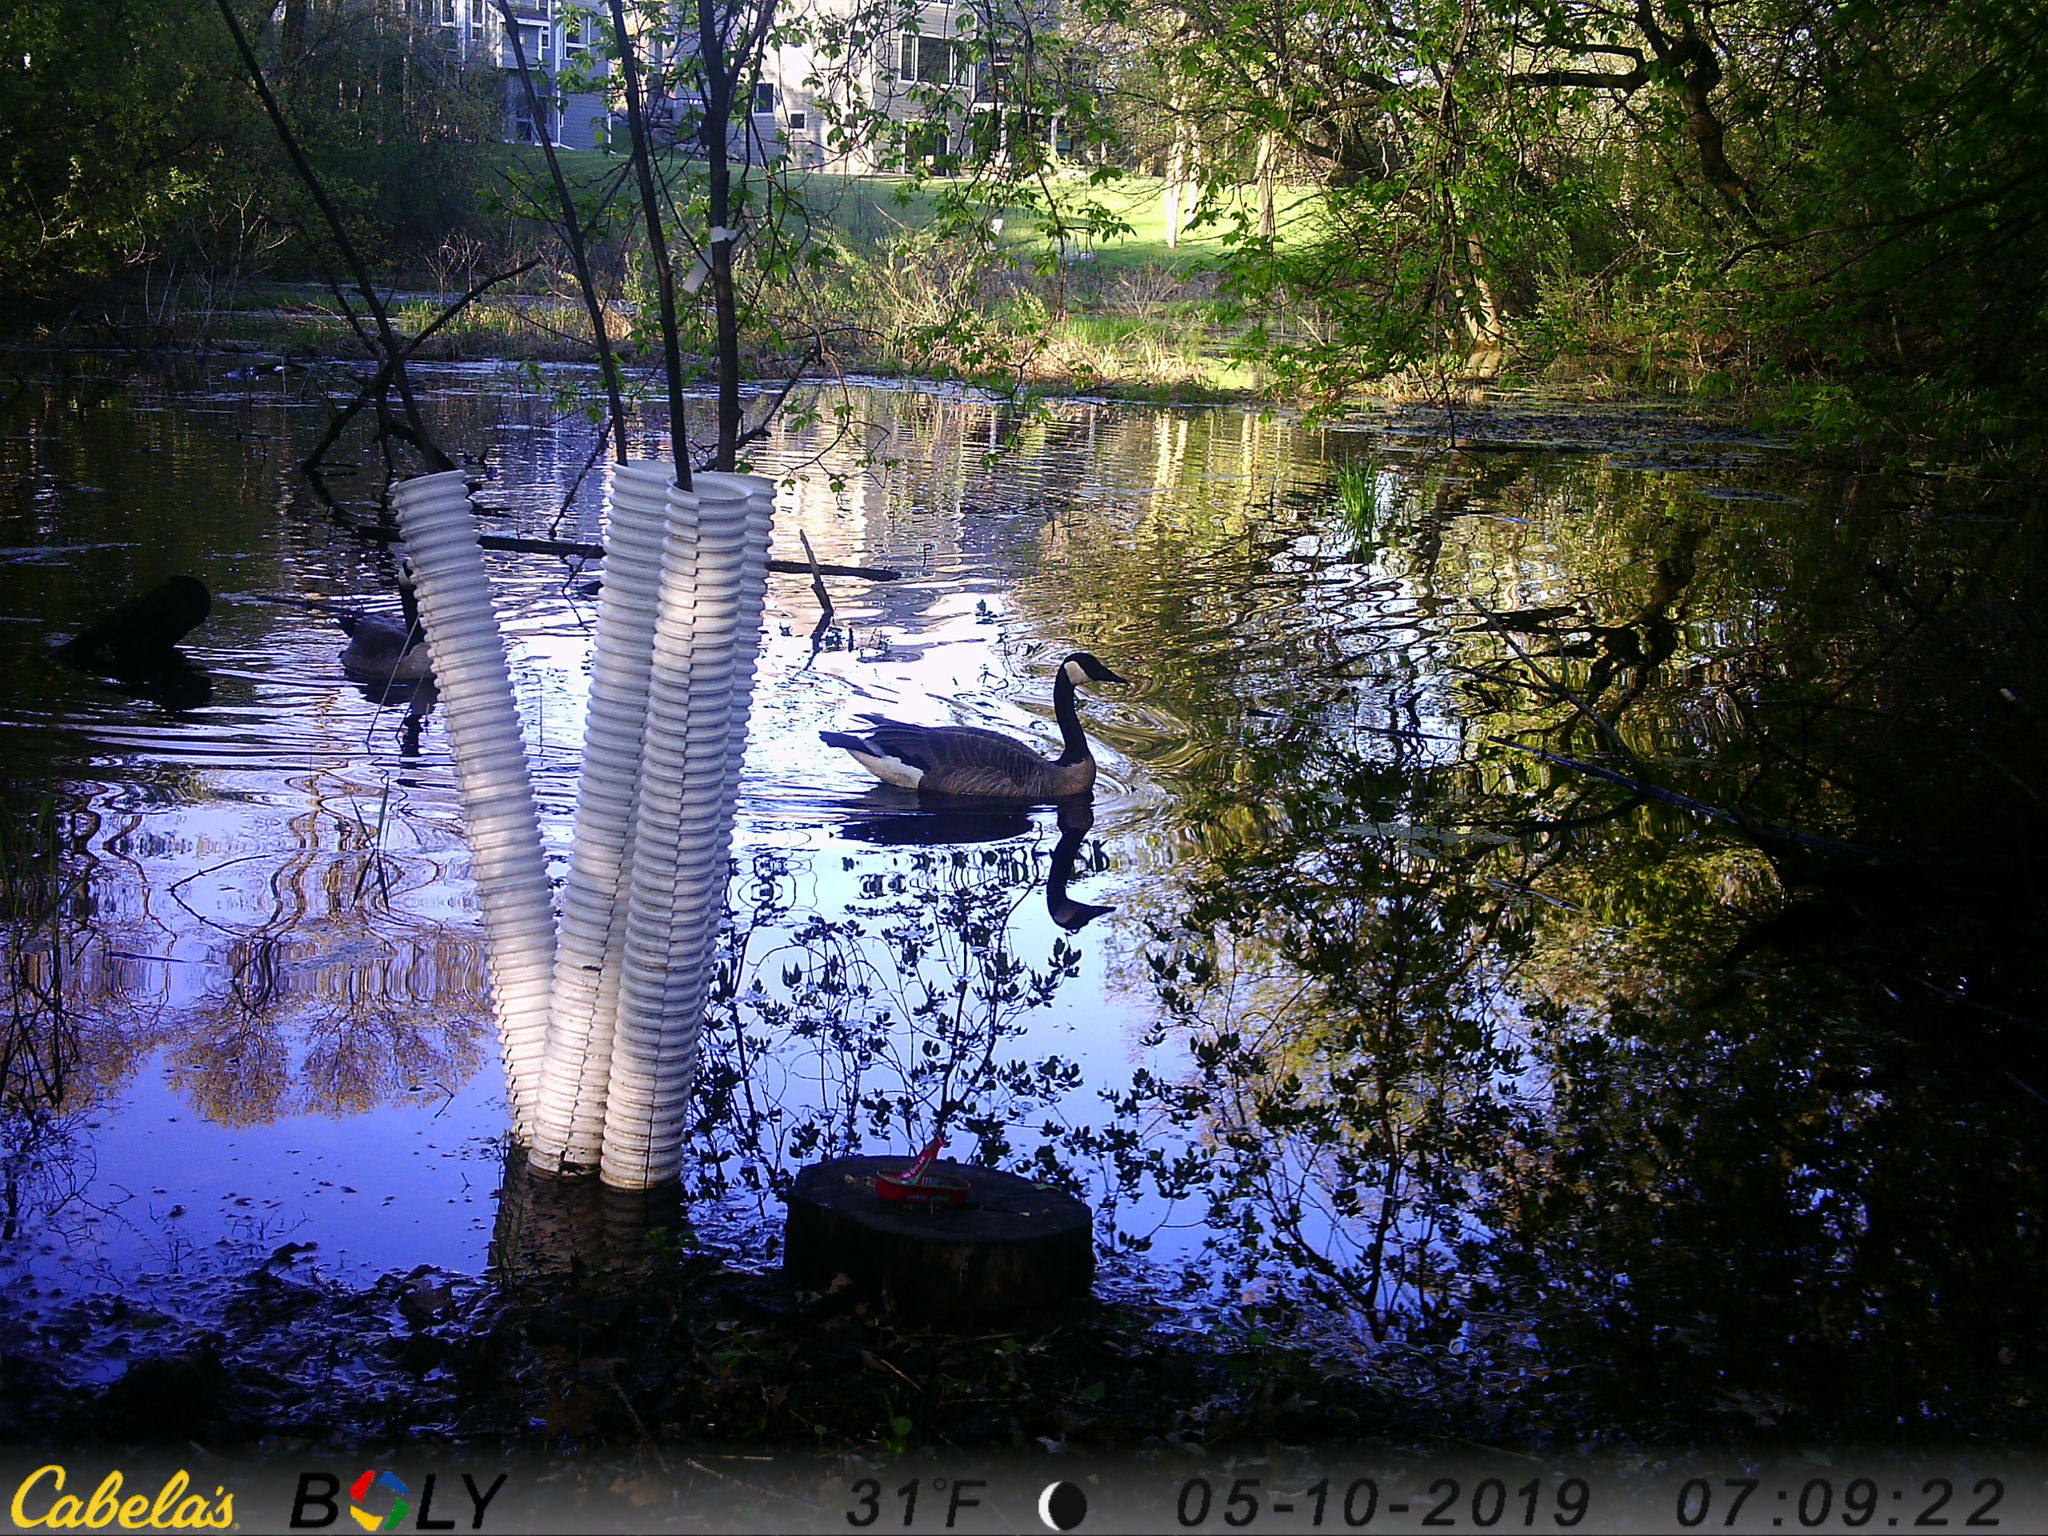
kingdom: Animalia
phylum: Chordata
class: Aves
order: Anseriformes
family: Anatidae
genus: Branta
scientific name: Branta canadensis
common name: Canada goose
